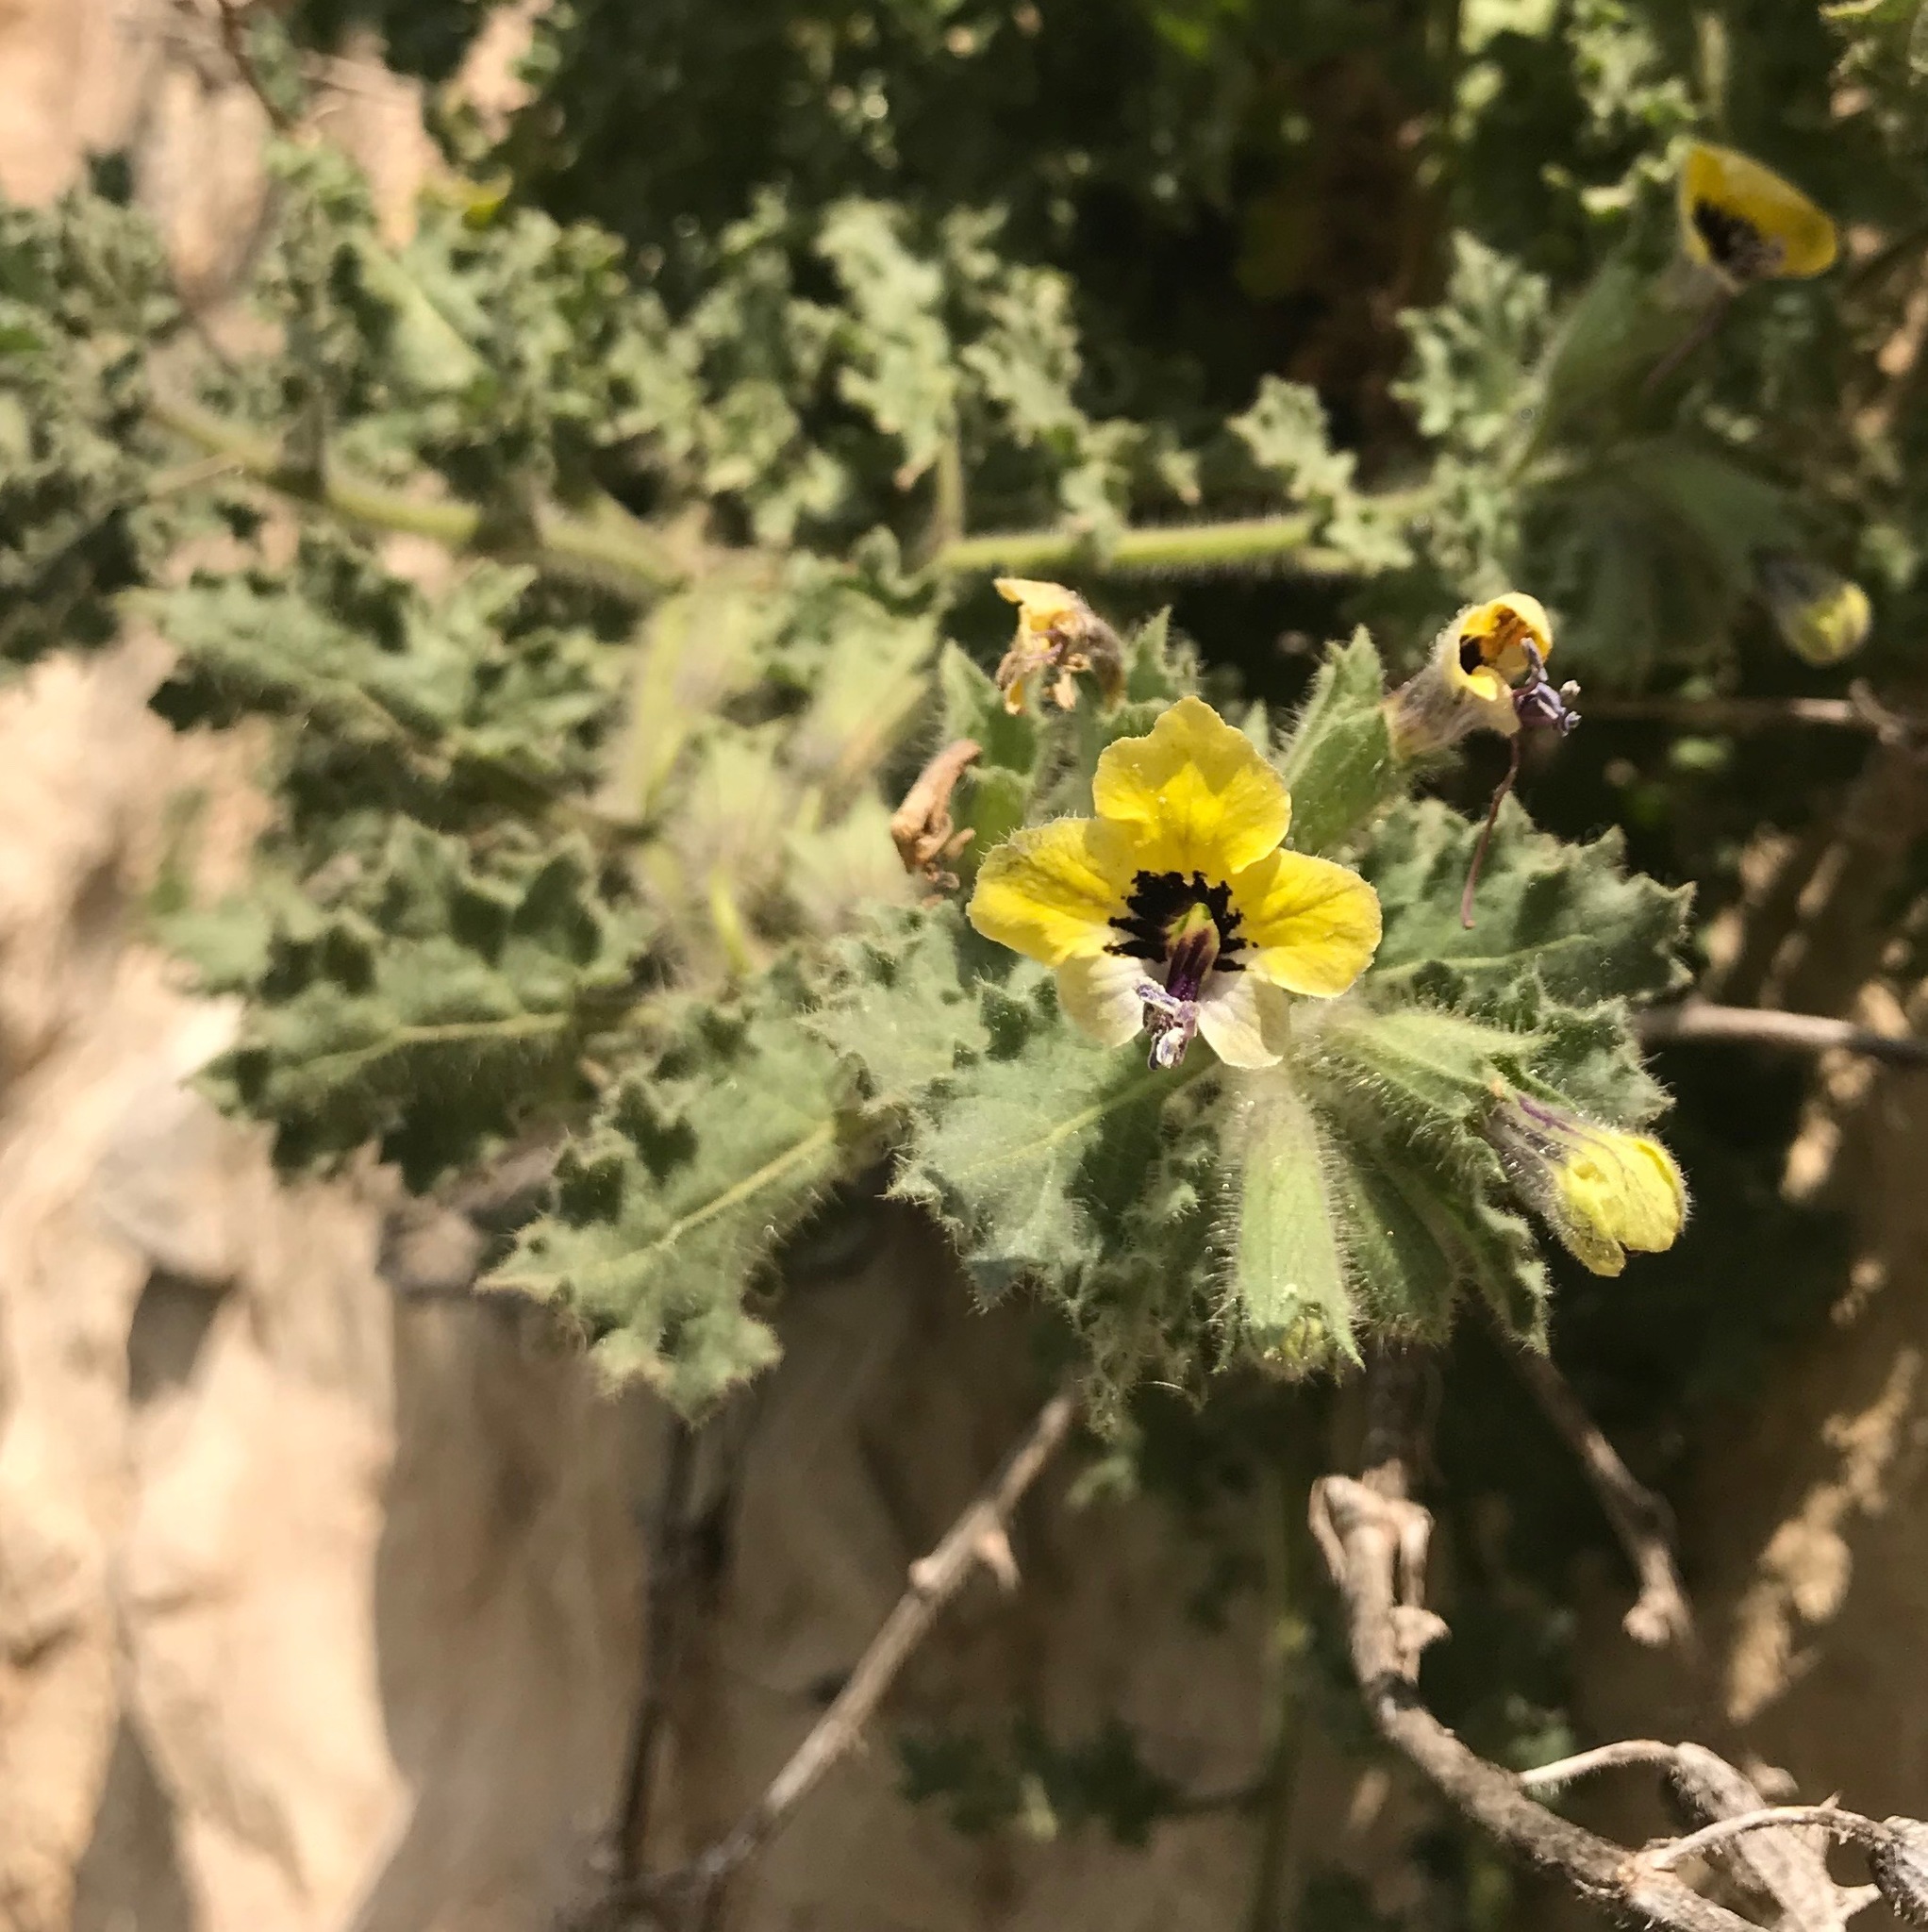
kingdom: Plantae
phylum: Tracheophyta
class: Magnoliopsida
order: Solanales
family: Solanaceae
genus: Hyoscyamus
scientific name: Hyoscyamus aureus
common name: Golden henbane
